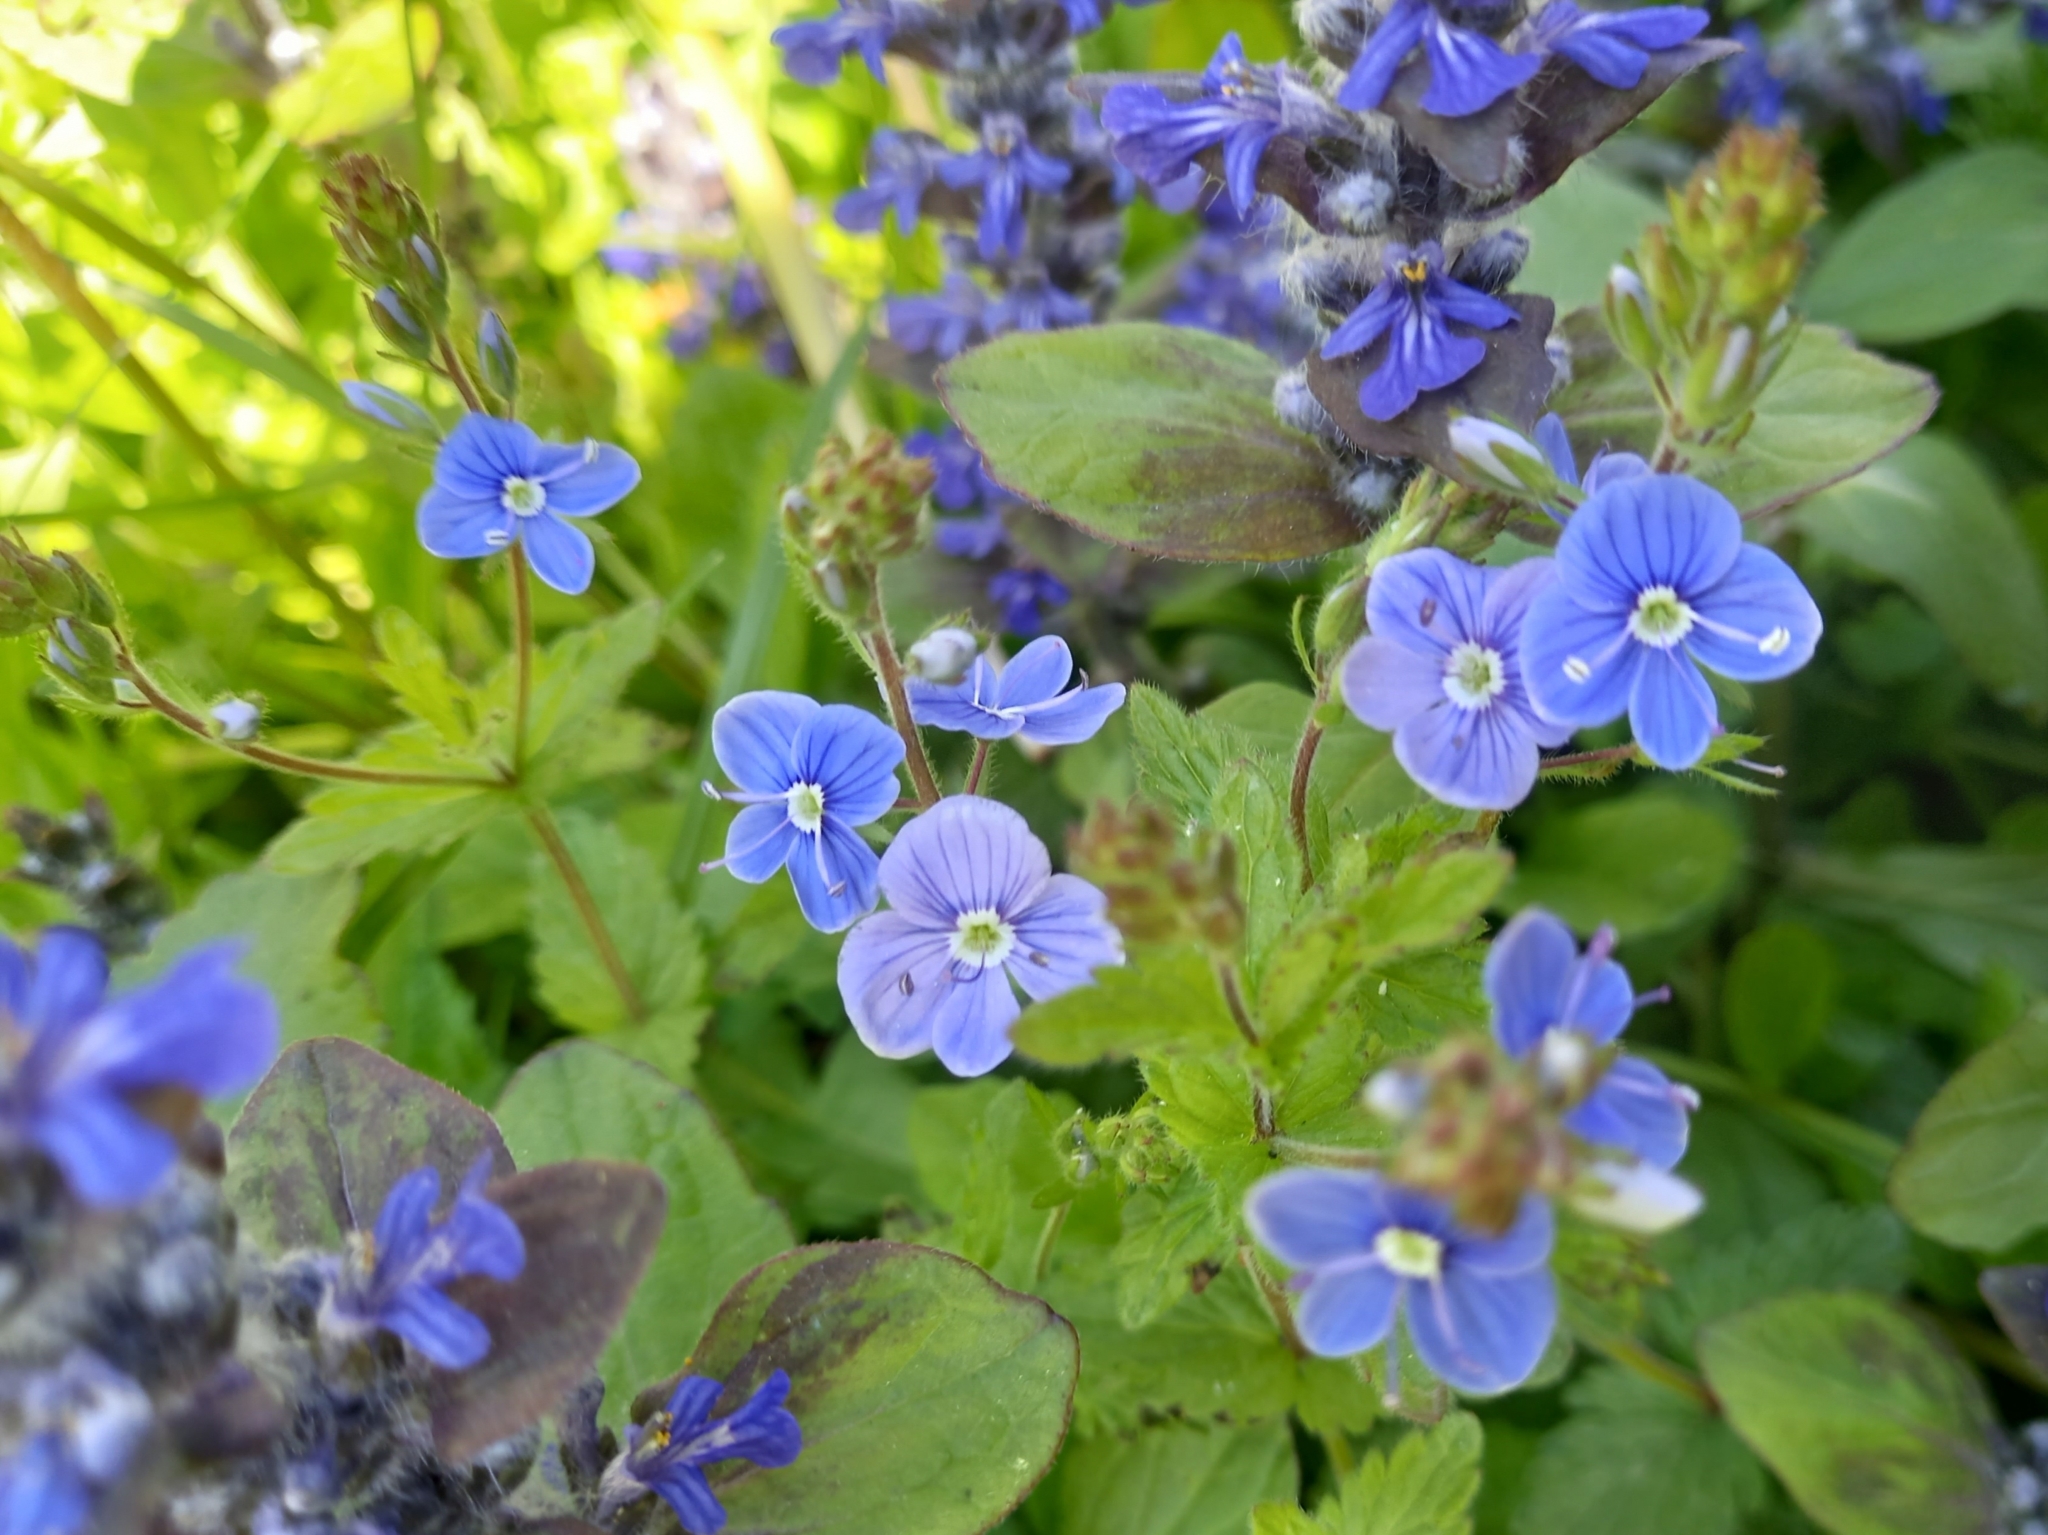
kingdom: Plantae
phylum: Tracheophyta
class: Magnoliopsida
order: Lamiales
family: Plantaginaceae
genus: Veronica
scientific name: Veronica chamaedrys
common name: Germander speedwell
